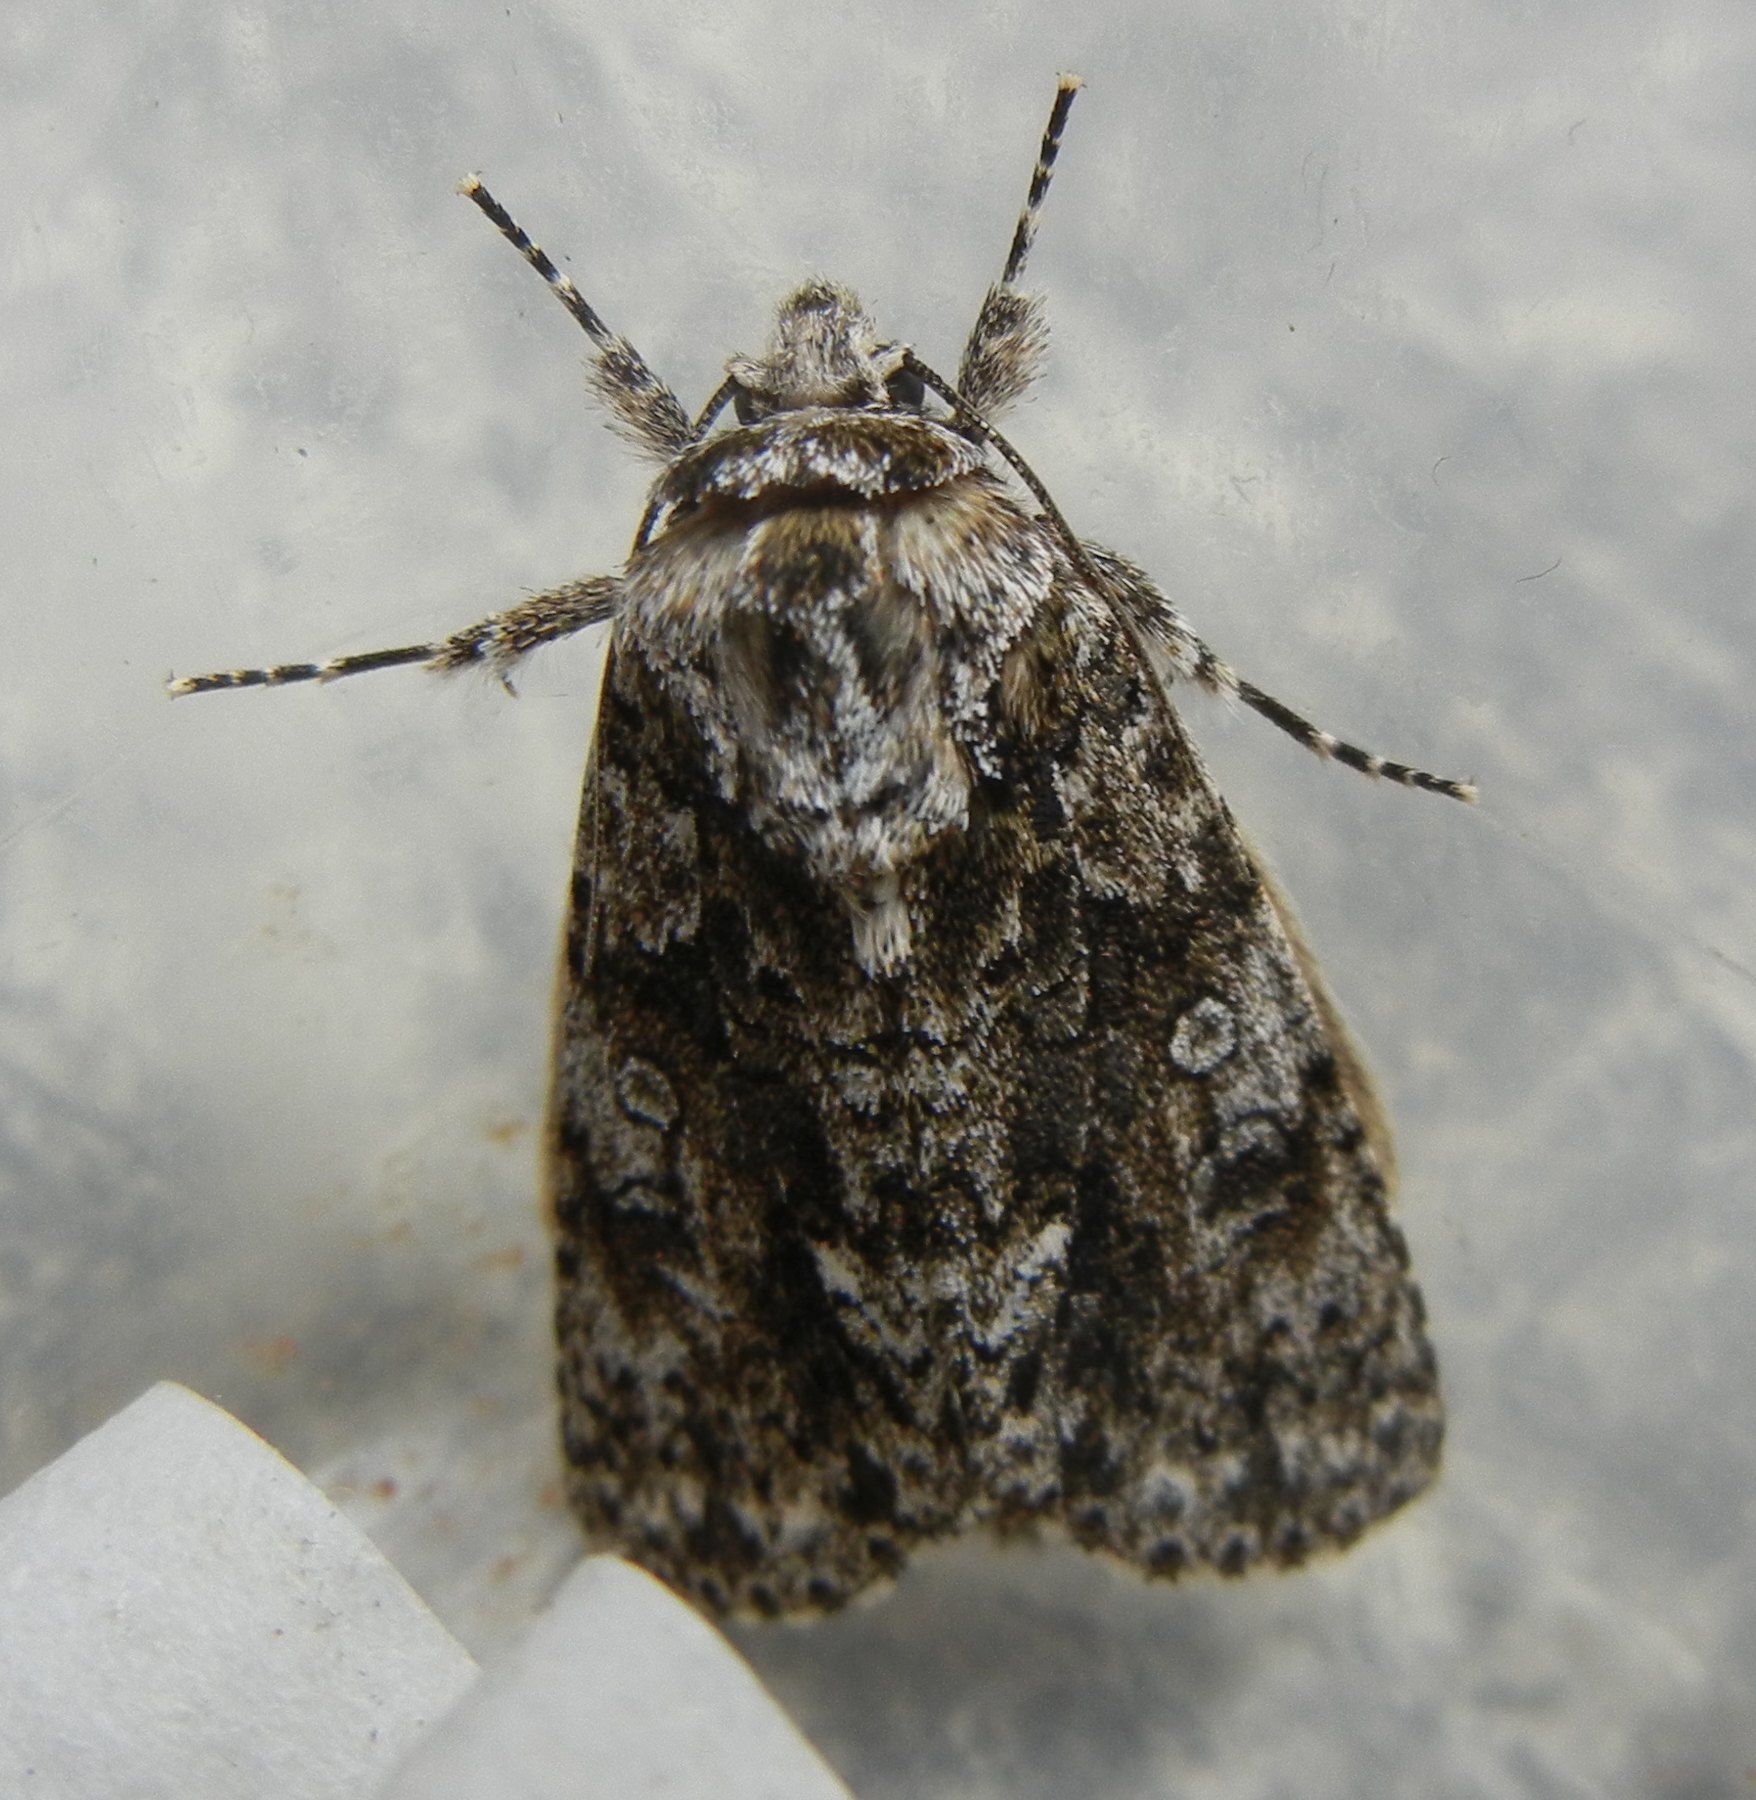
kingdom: Animalia
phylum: Arthropoda
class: Insecta
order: Lepidoptera
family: Noctuidae
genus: Acronicta
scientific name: Acronicta rumicis
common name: Knot grass
